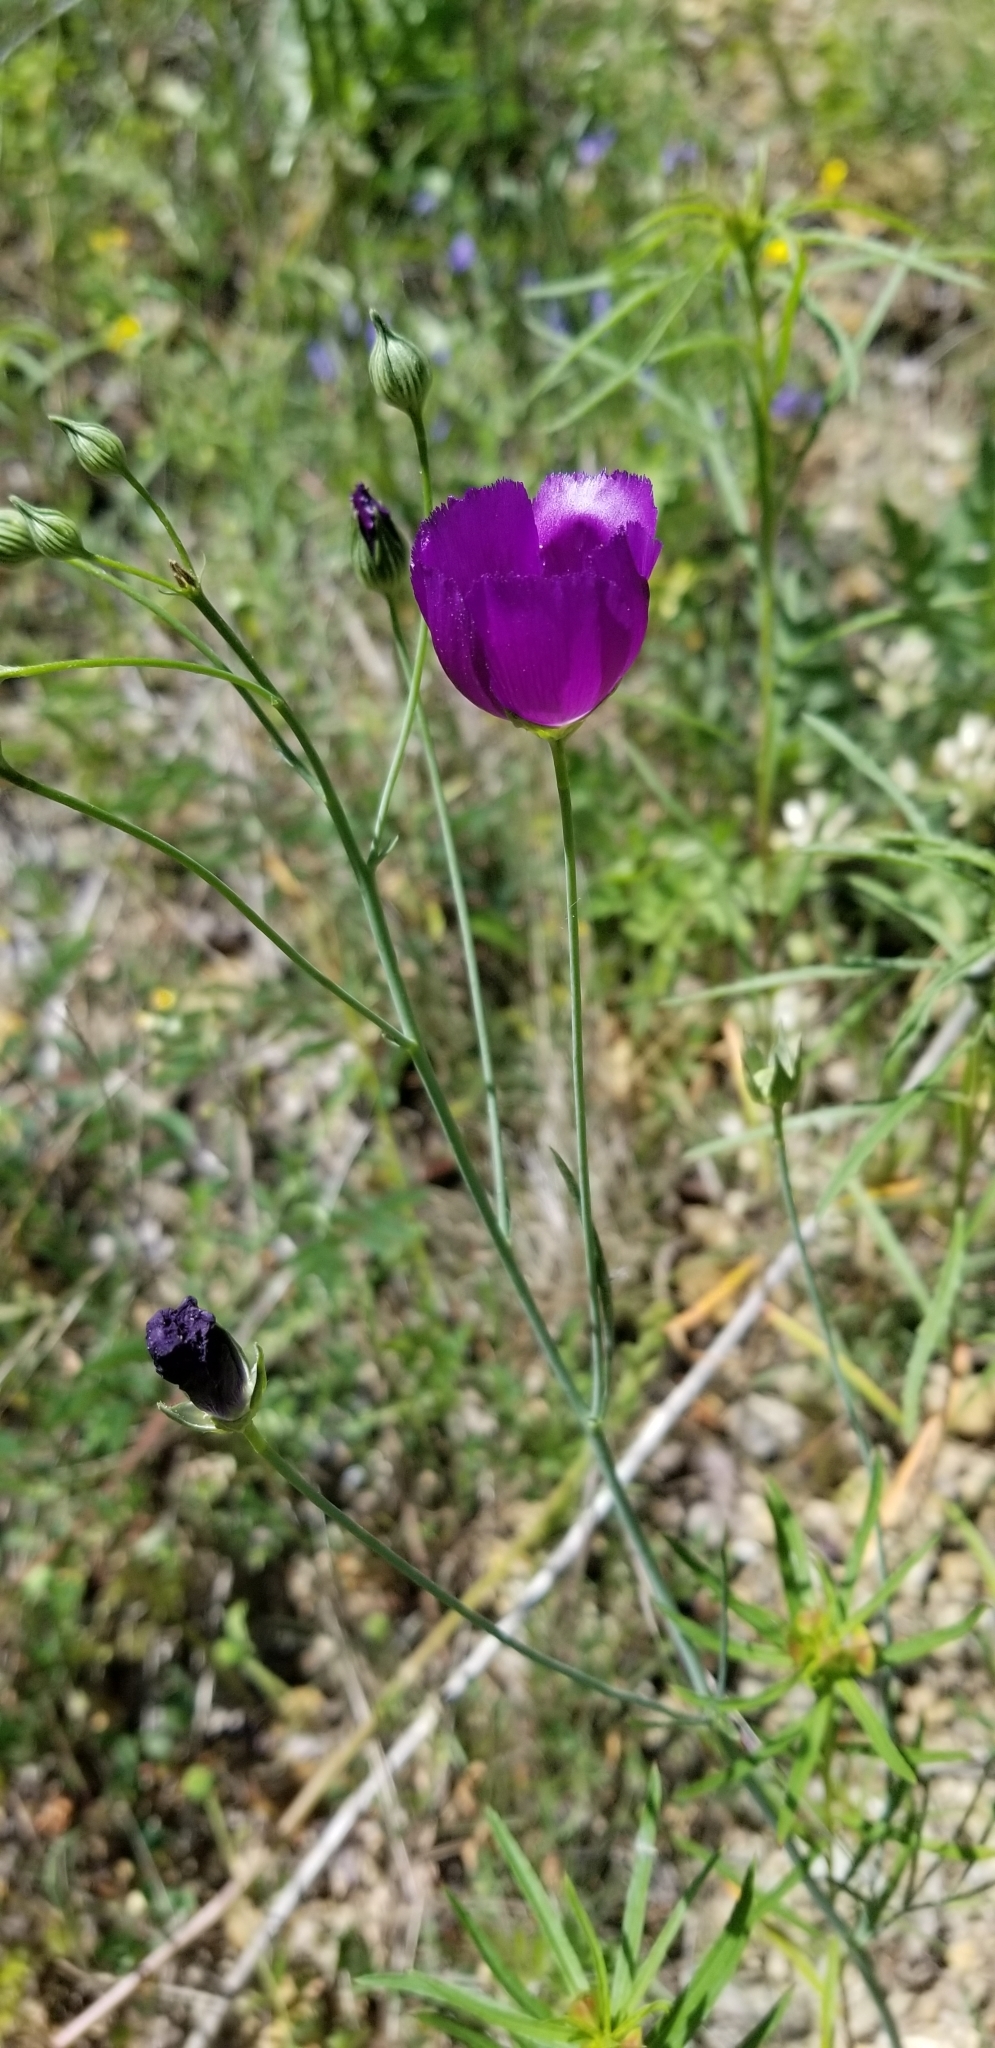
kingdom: Plantae
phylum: Tracheophyta
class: Magnoliopsida
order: Malvales
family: Malvaceae
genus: Callirhoe
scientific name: Callirhoe pedata
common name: Finger poppy-mallow
